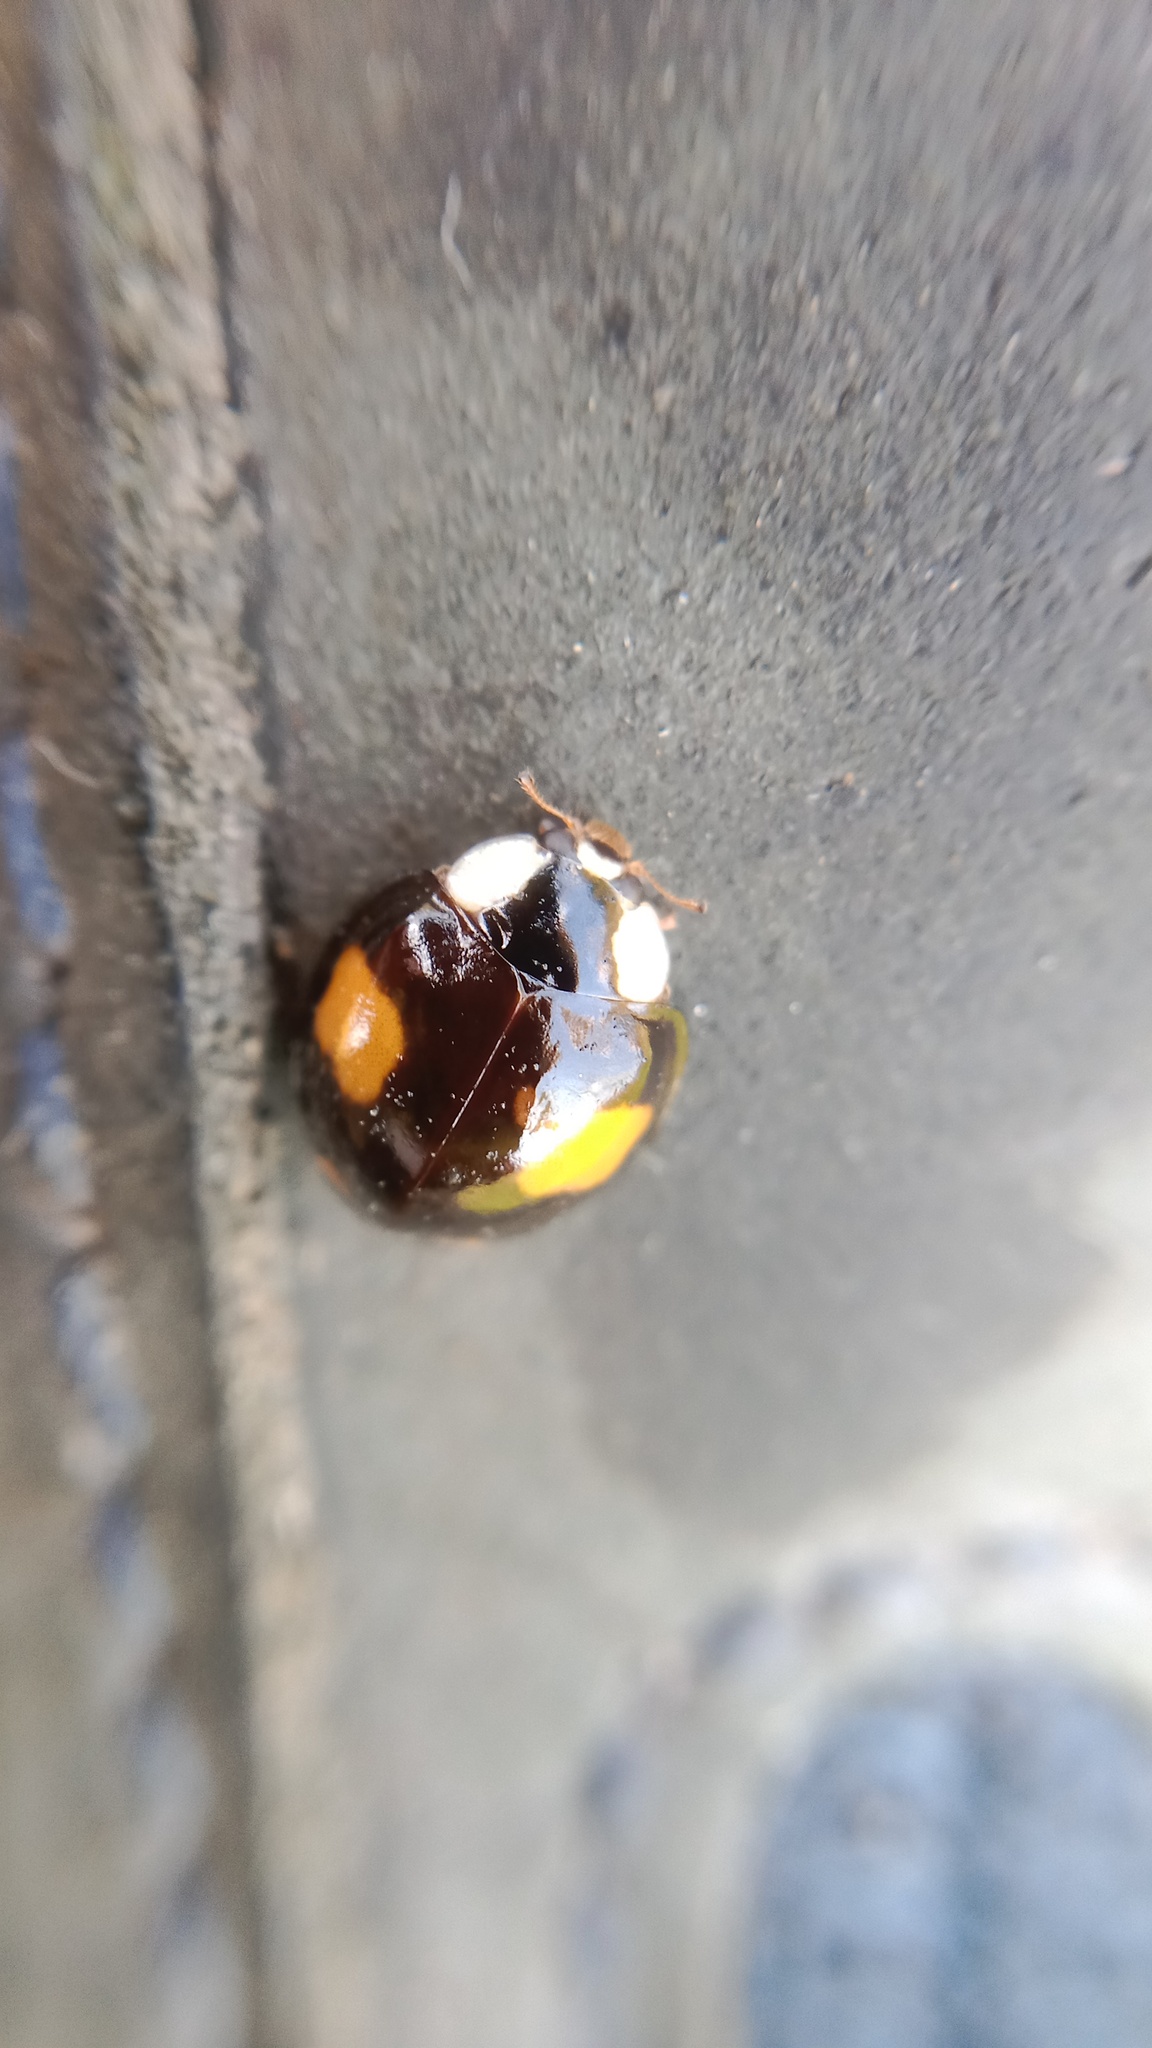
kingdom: Animalia
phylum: Arthropoda
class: Insecta
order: Coleoptera
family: Coccinellidae
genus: Harmonia
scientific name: Harmonia axyridis
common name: Harlequin ladybird
